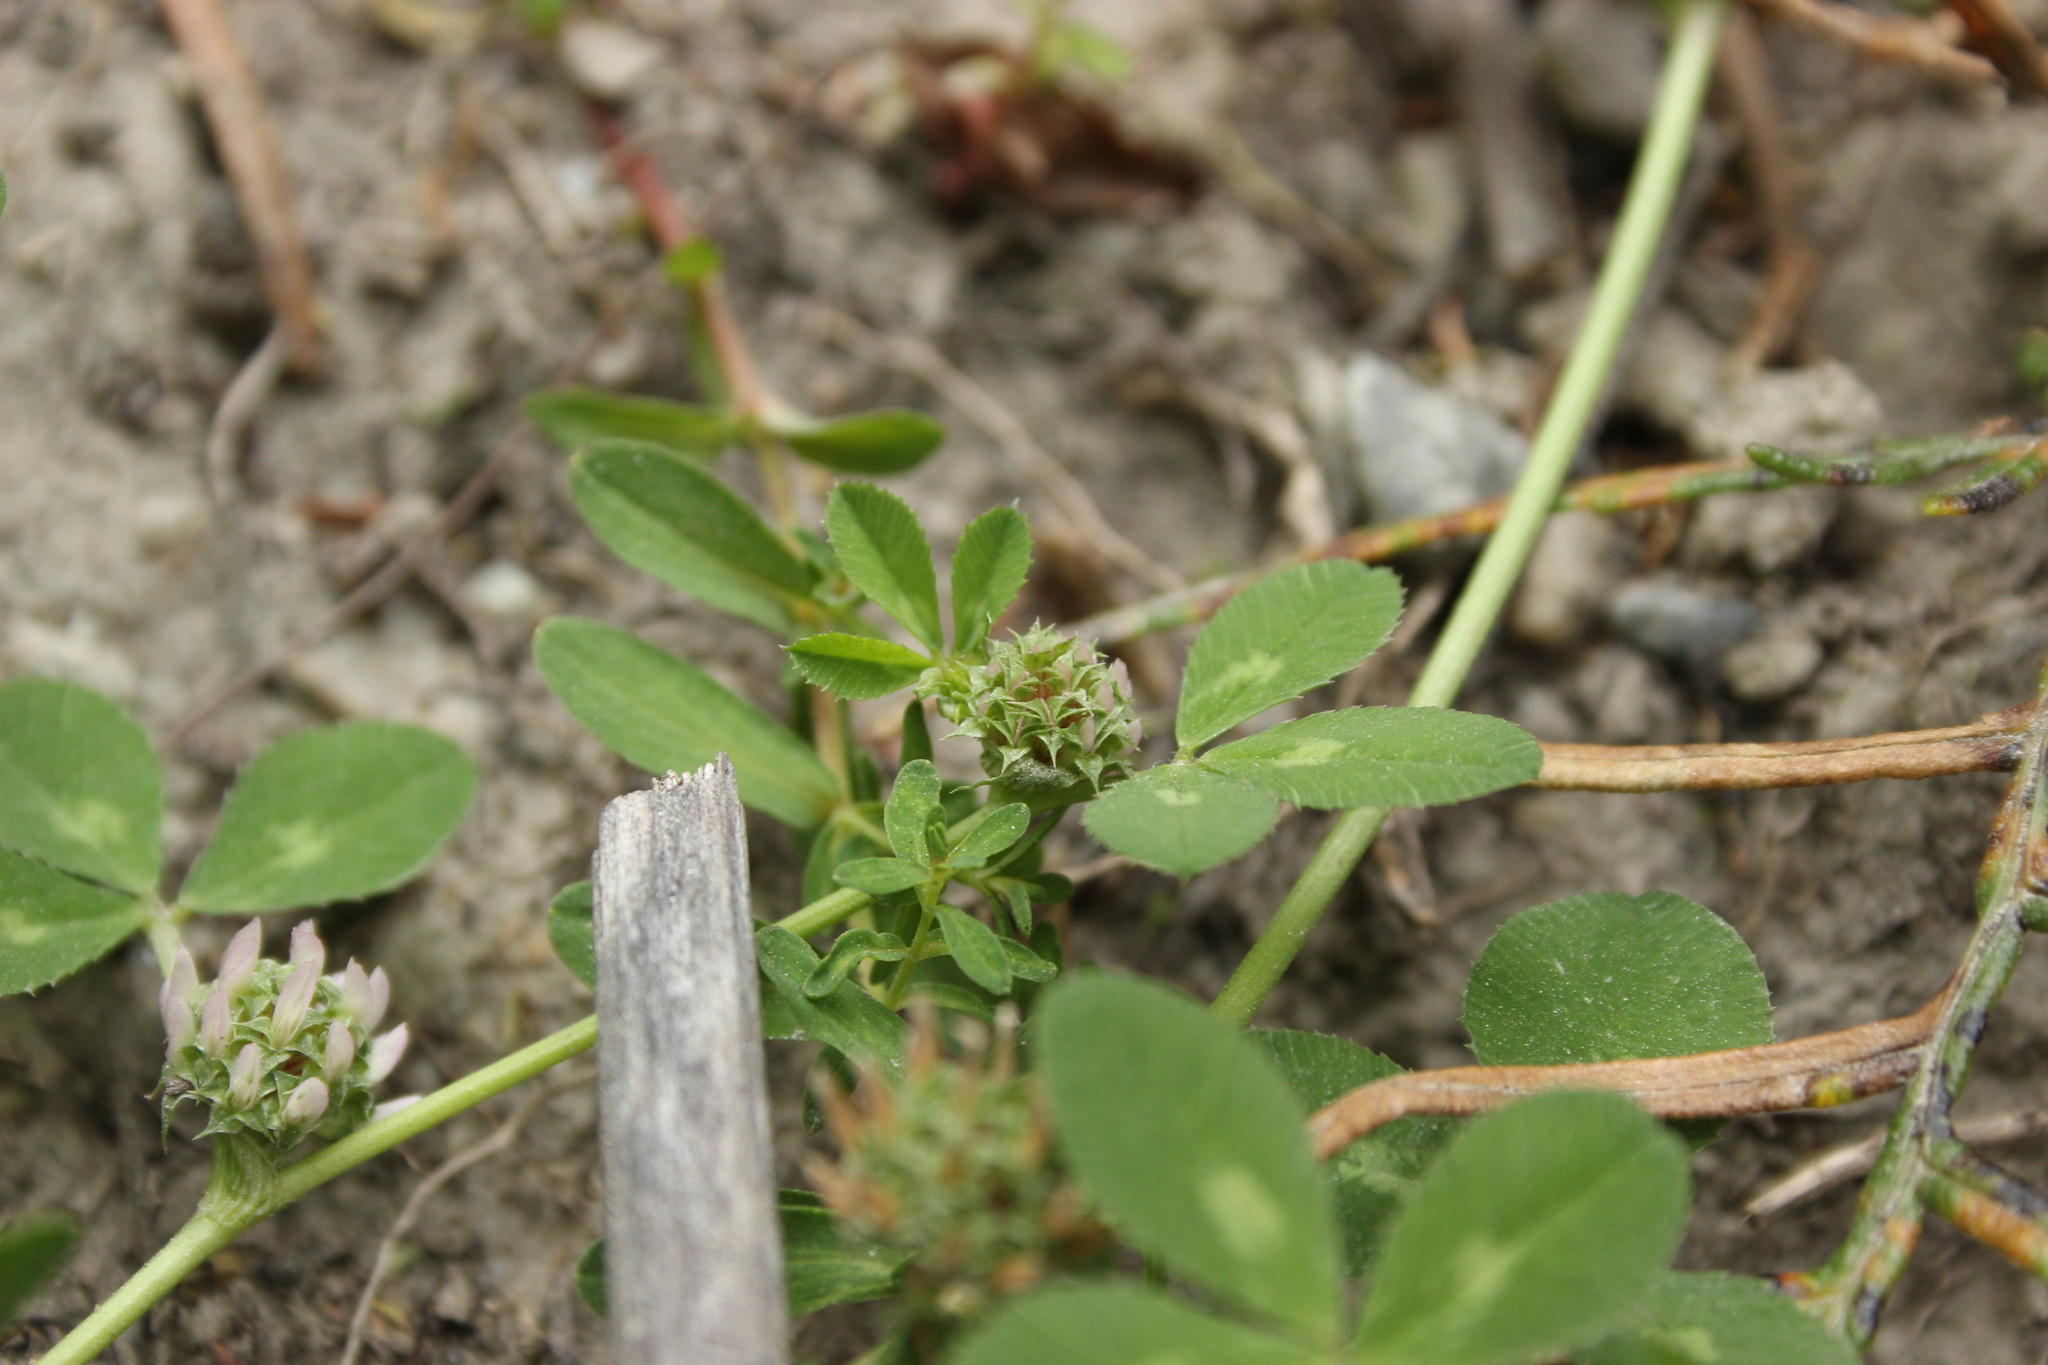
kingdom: Plantae
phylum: Tracheophyta
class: Magnoliopsida
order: Fabales
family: Fabaceae
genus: Trifolium
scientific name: Trifolium glomeratum
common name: Clustered clover
